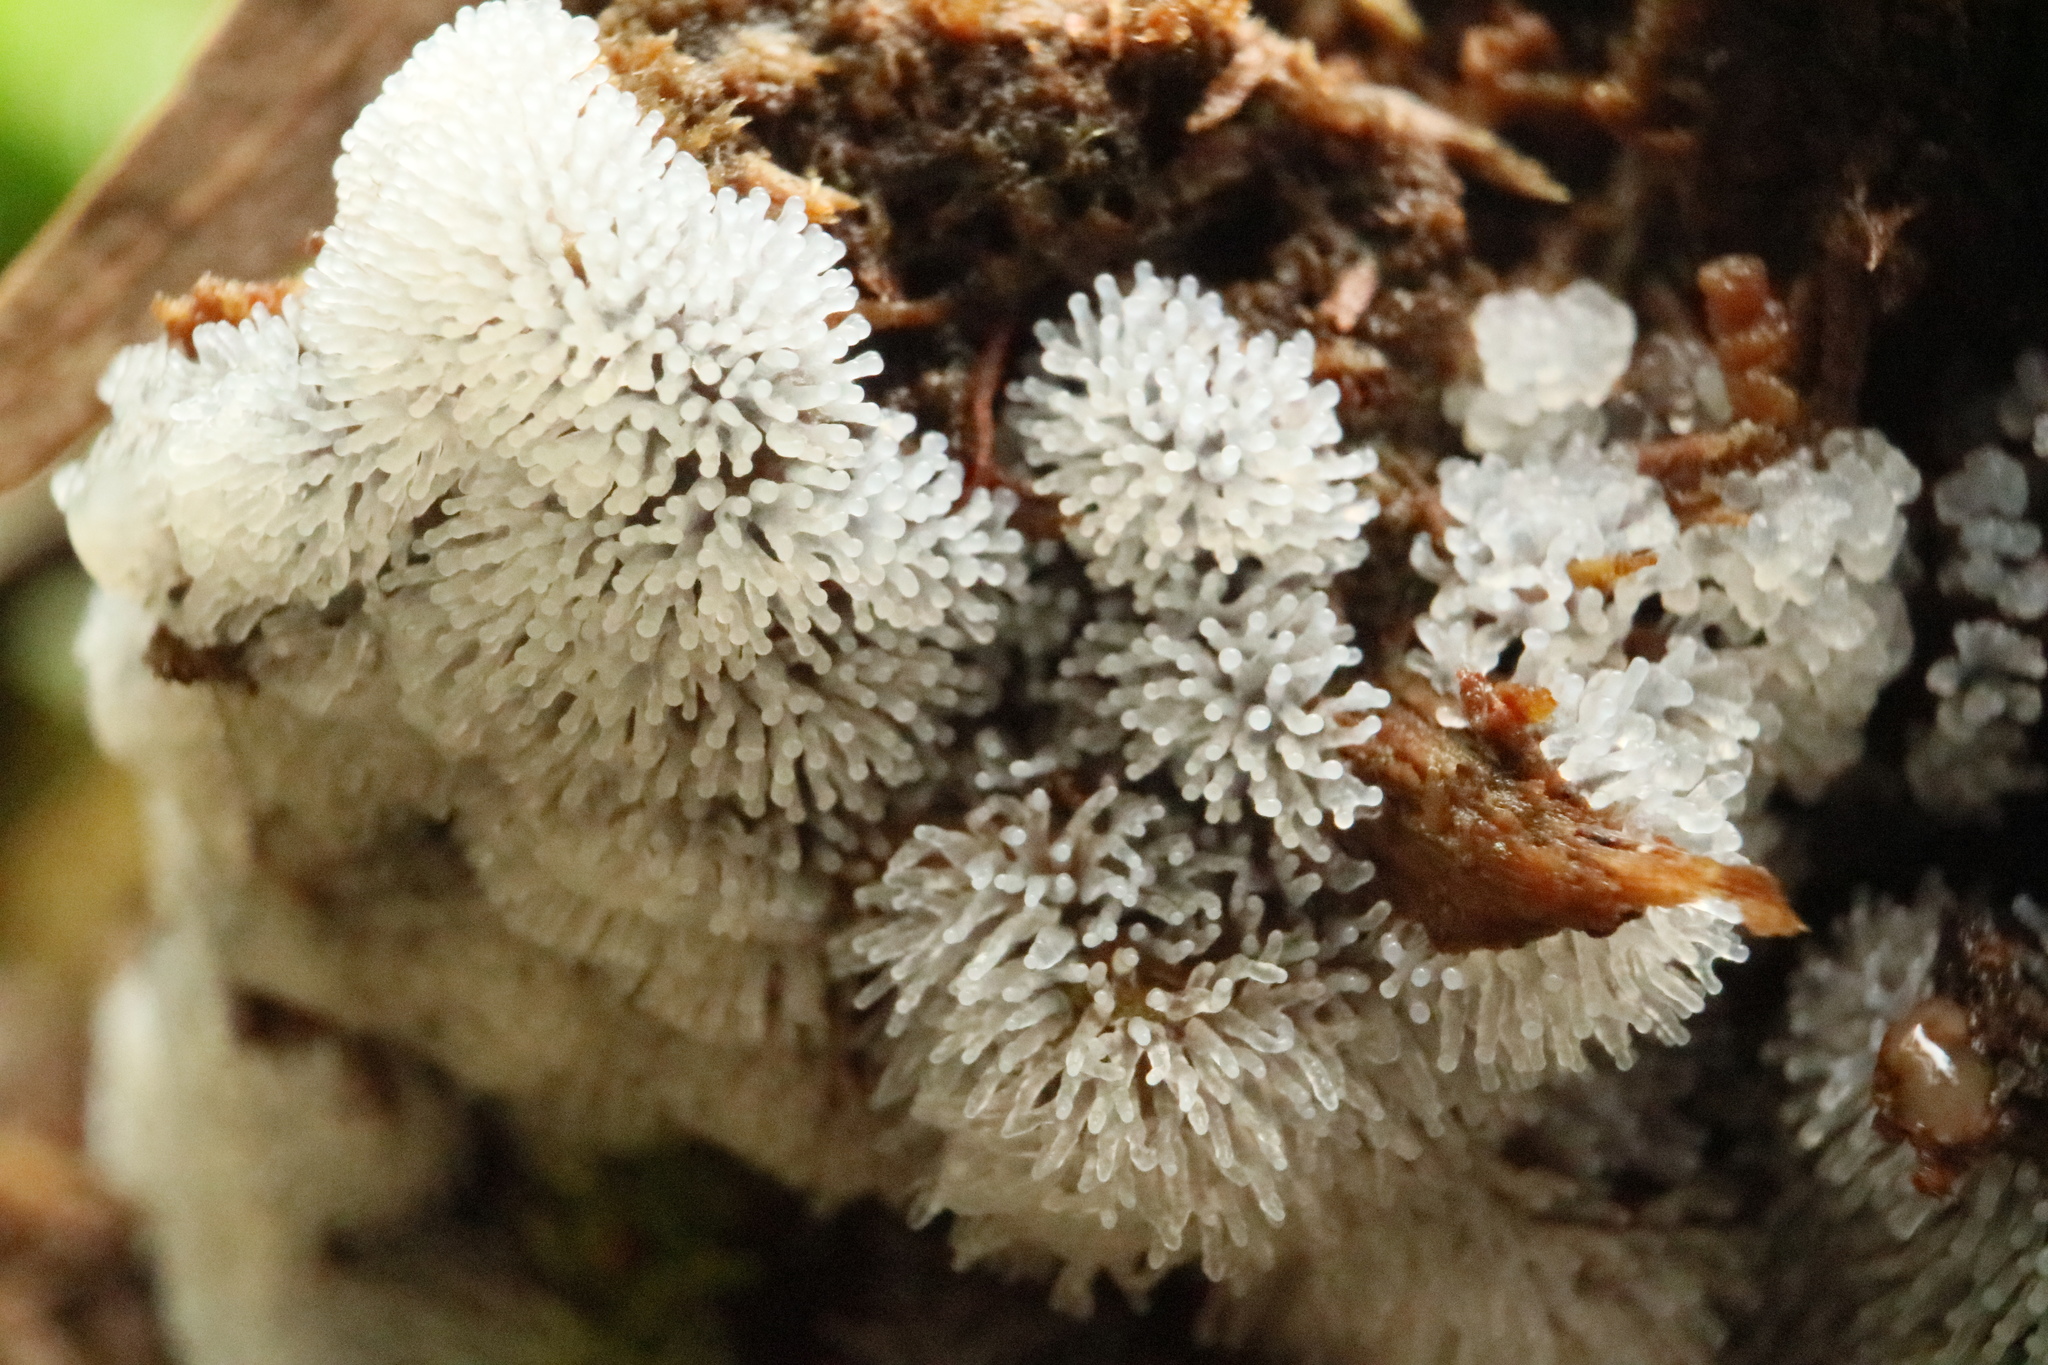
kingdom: Protozoa
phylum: Mycetozoa
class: Protosteliomycetes
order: Ceratiomyxales
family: Ceratiomyxaceae
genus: Ceratiomyxa
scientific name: Ceratiomyxa fruticulosa
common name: Honeycomb coral slime mold
